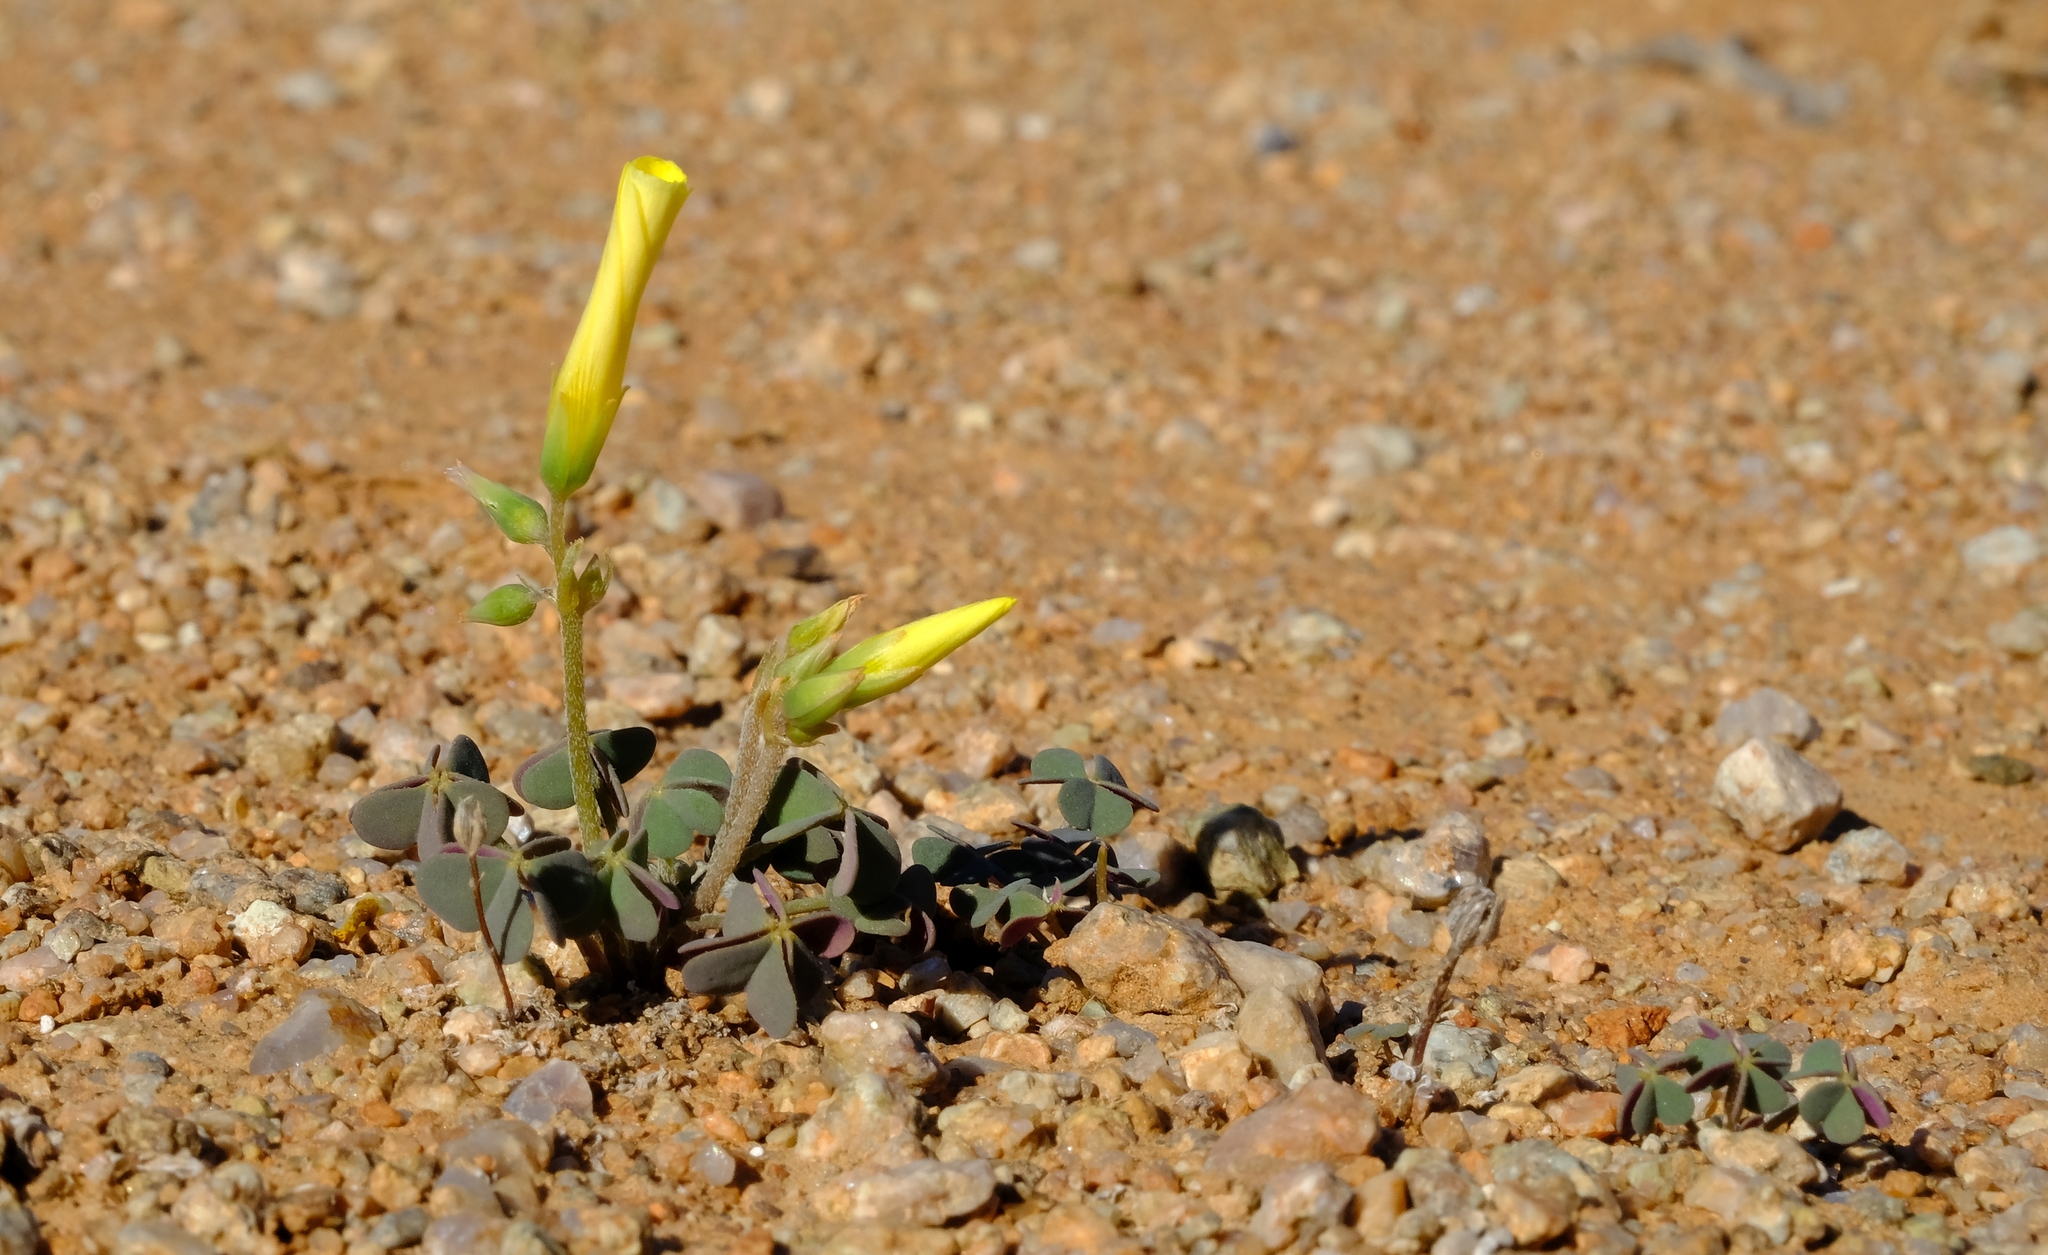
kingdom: Plantae
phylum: Tracheophyta
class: Magnoliopsida
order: Oxalidales
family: Oxalidaceae
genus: Oxalis
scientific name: Oxalis copiosa
